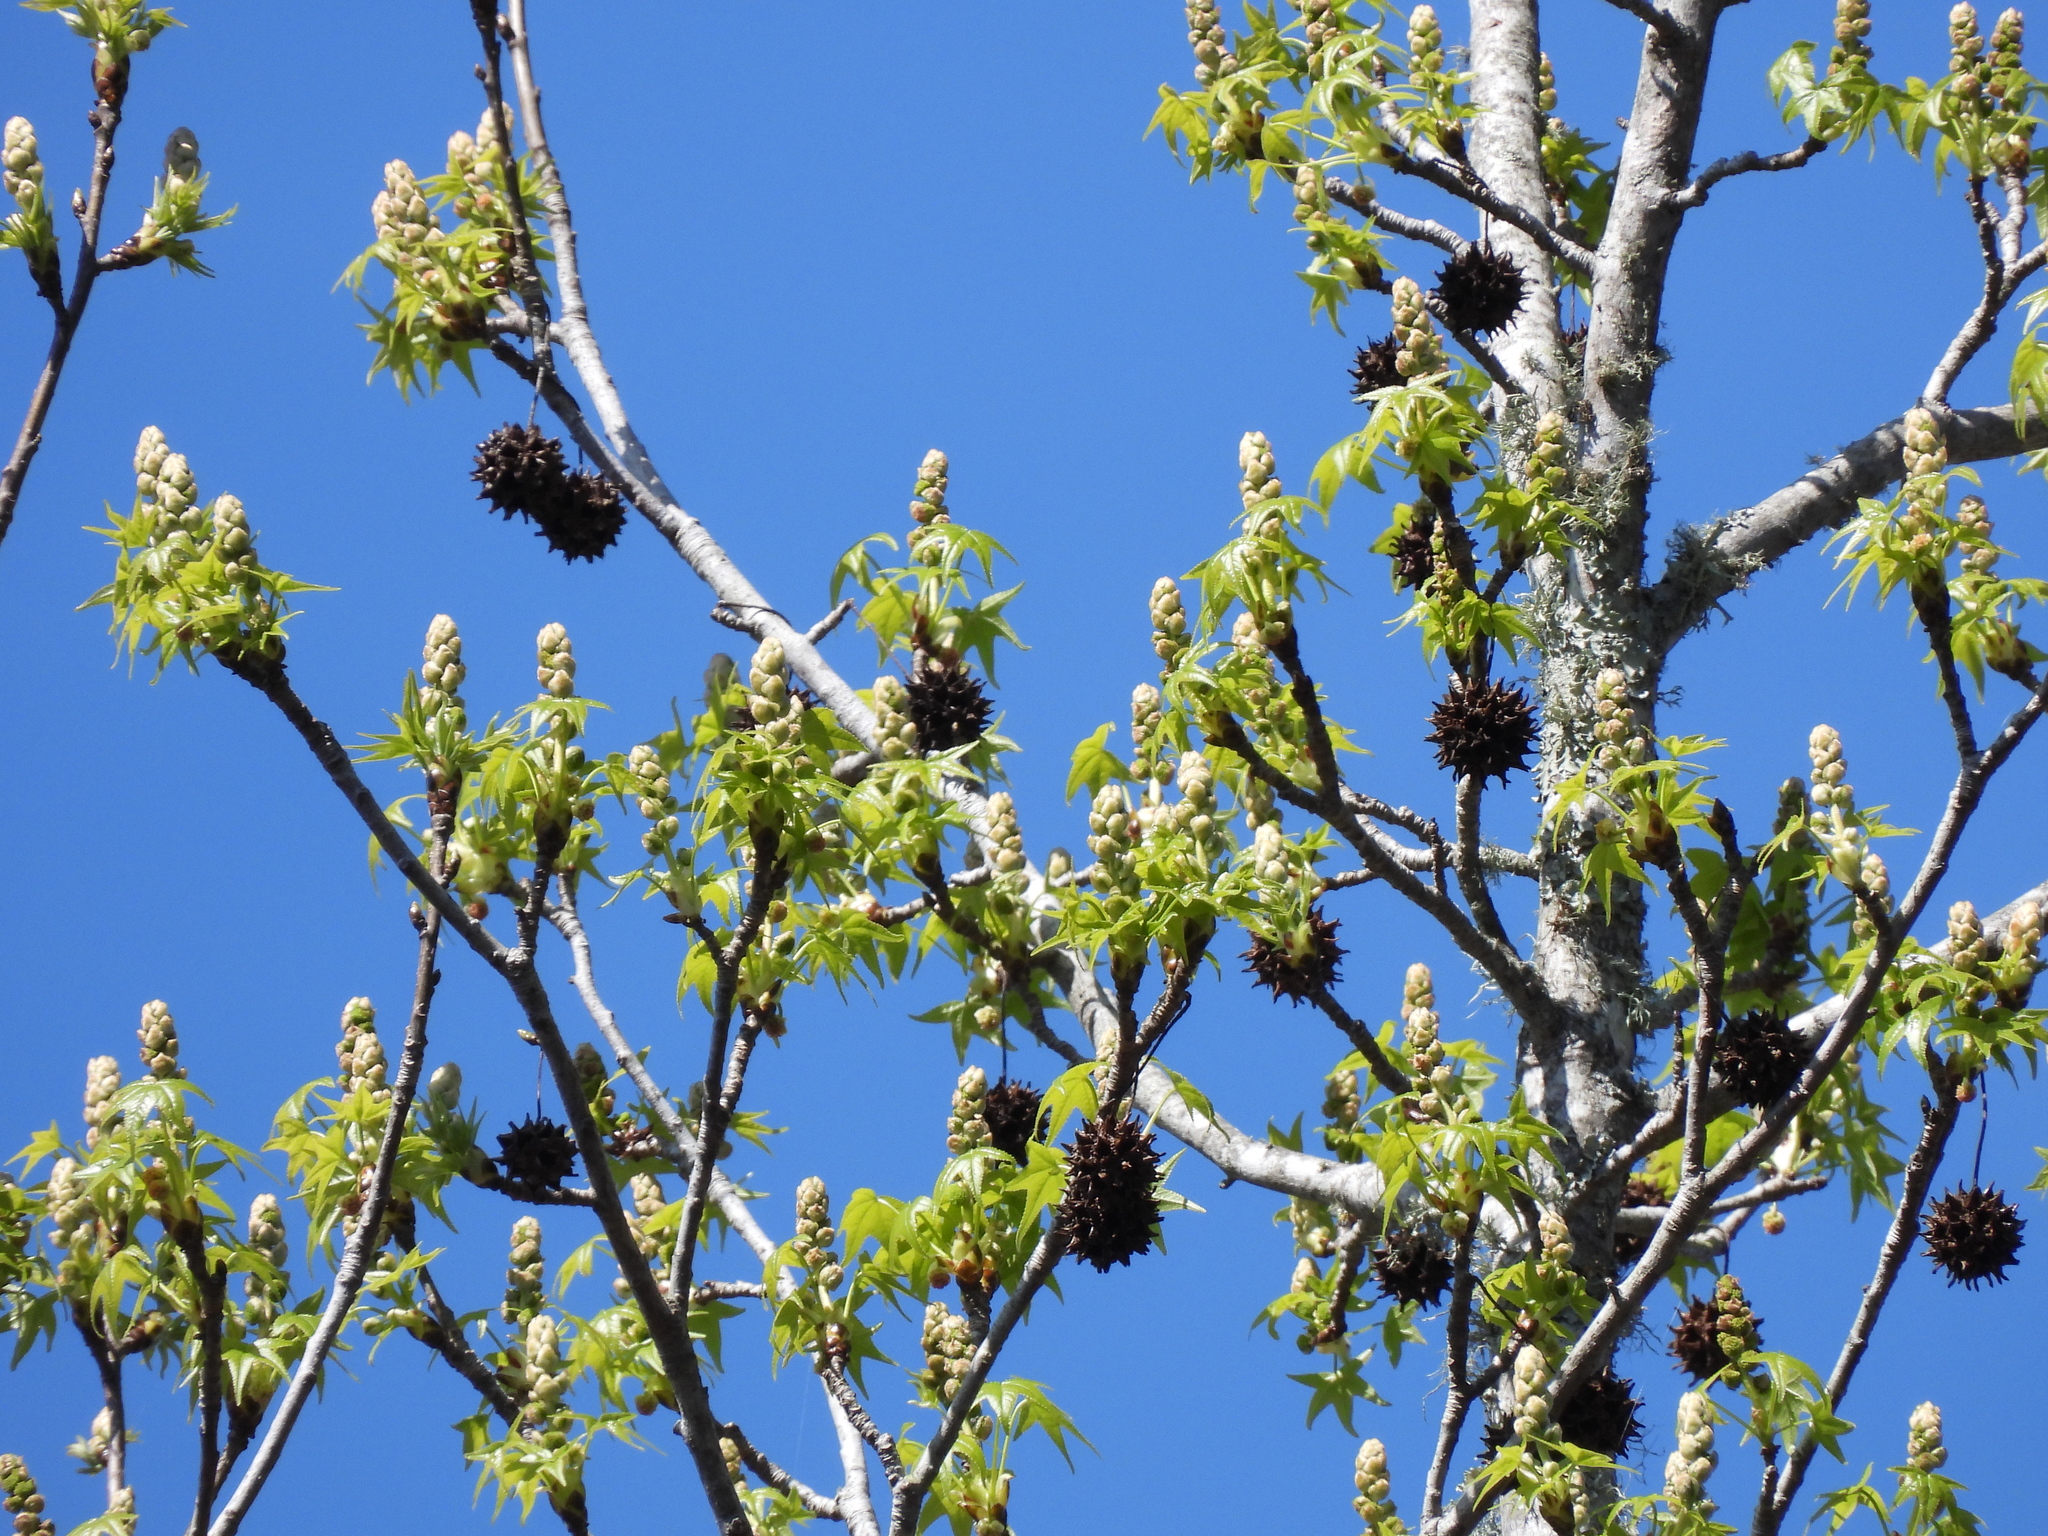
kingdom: Plantae
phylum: Tracheophyta
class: Magnoliopsida
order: Saxifragales
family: Altingiaceae
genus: Liquidambar
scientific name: Liquidambar styraciflua
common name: Sweet gum
